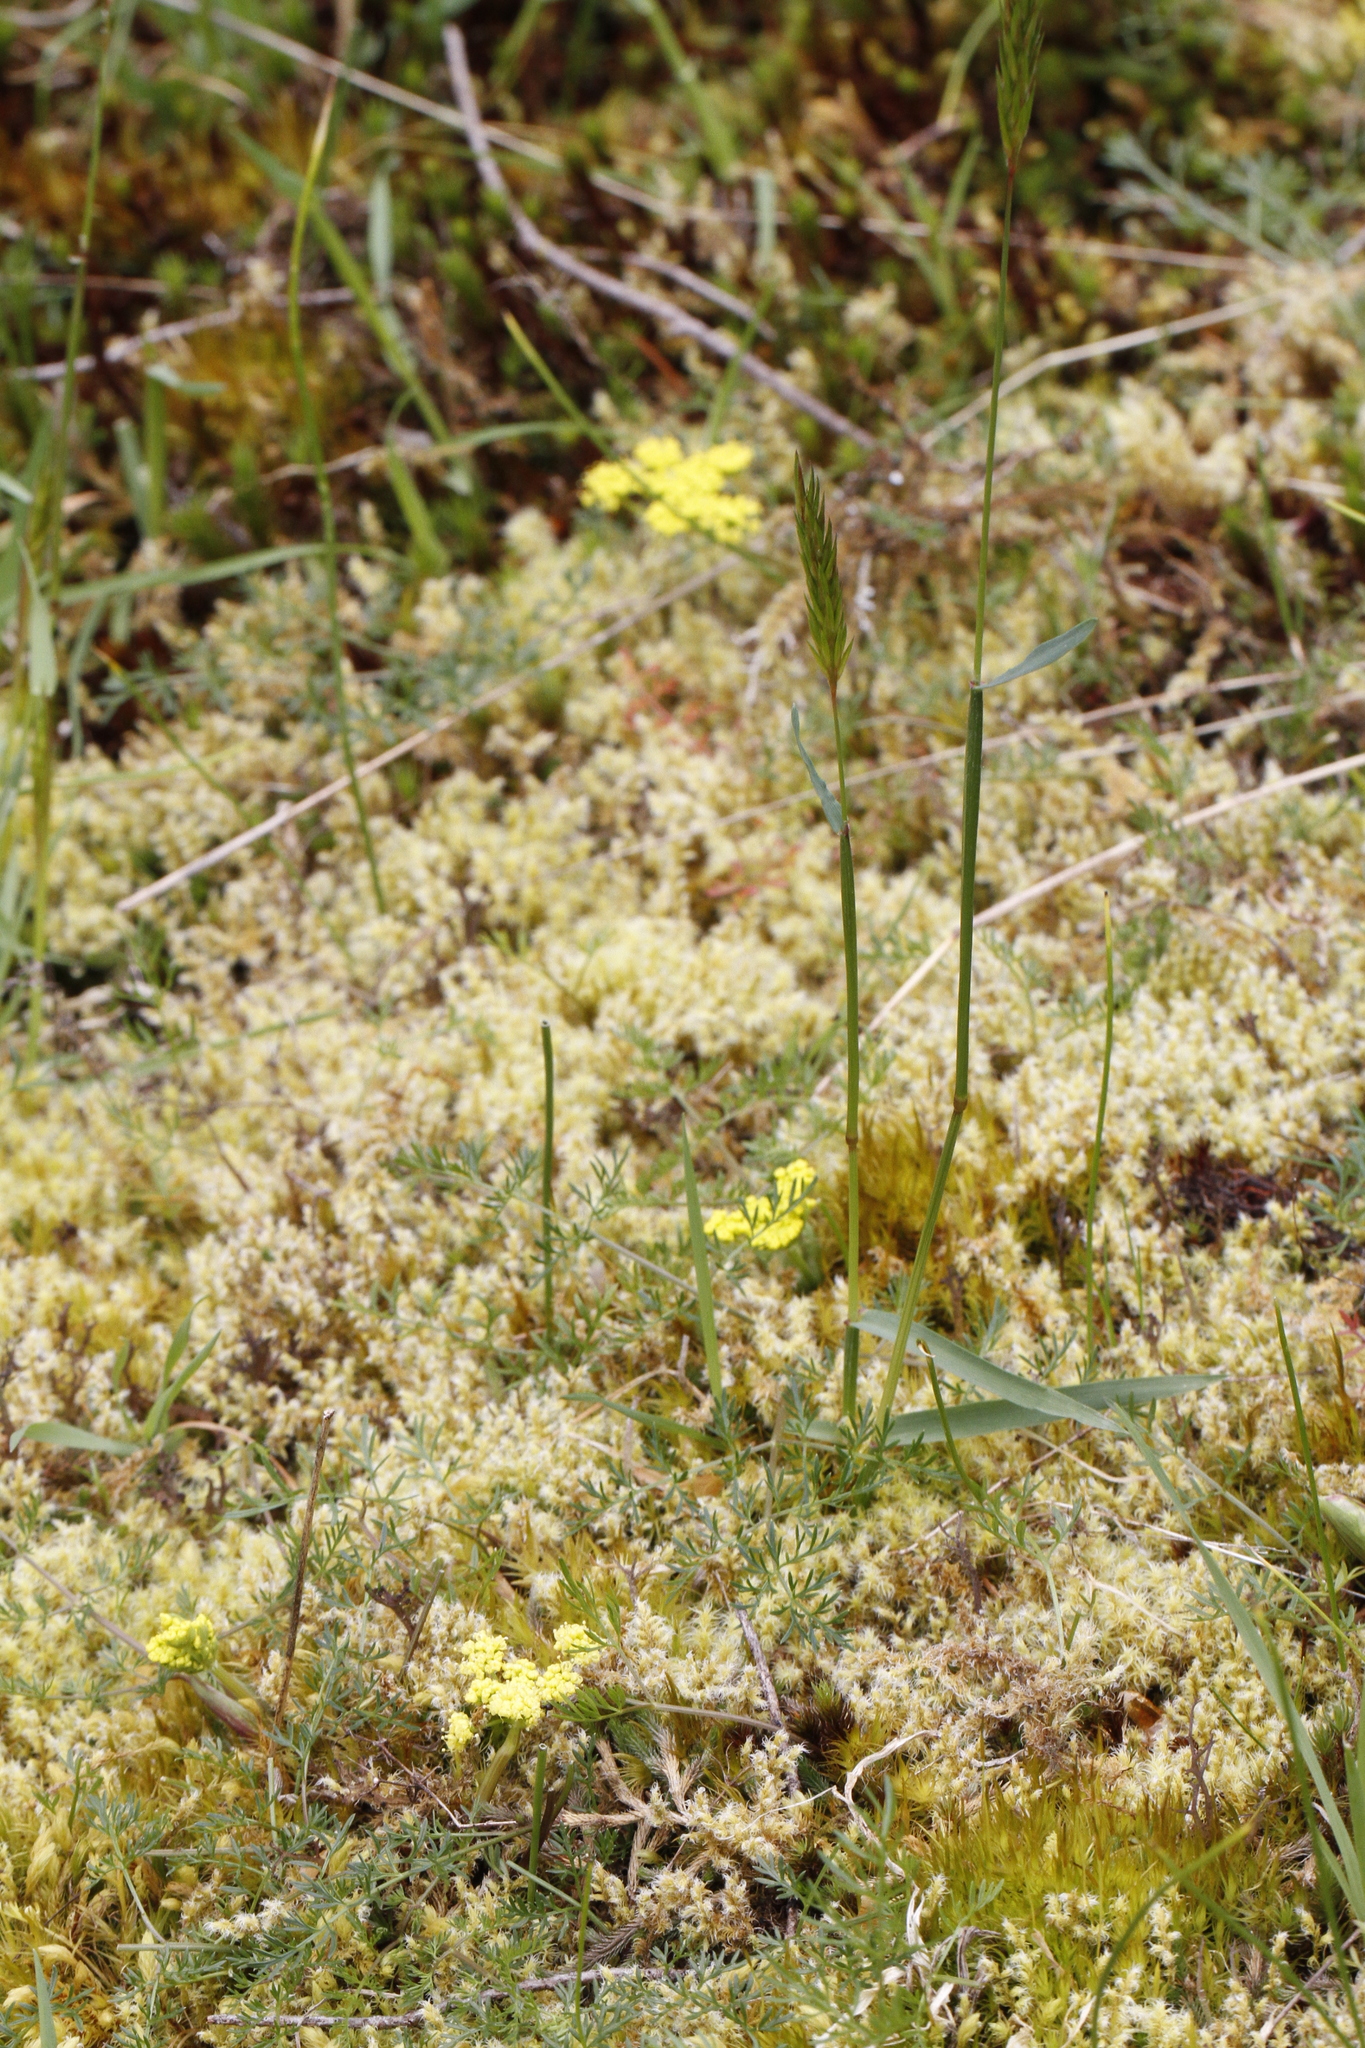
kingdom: Plantae
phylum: Tracheophyta
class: Magnoliopsida
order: Apiales
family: Apiaceae
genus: Lomatium
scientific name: Lomatium utriculatum
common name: Fine-leaf desert-parsley
